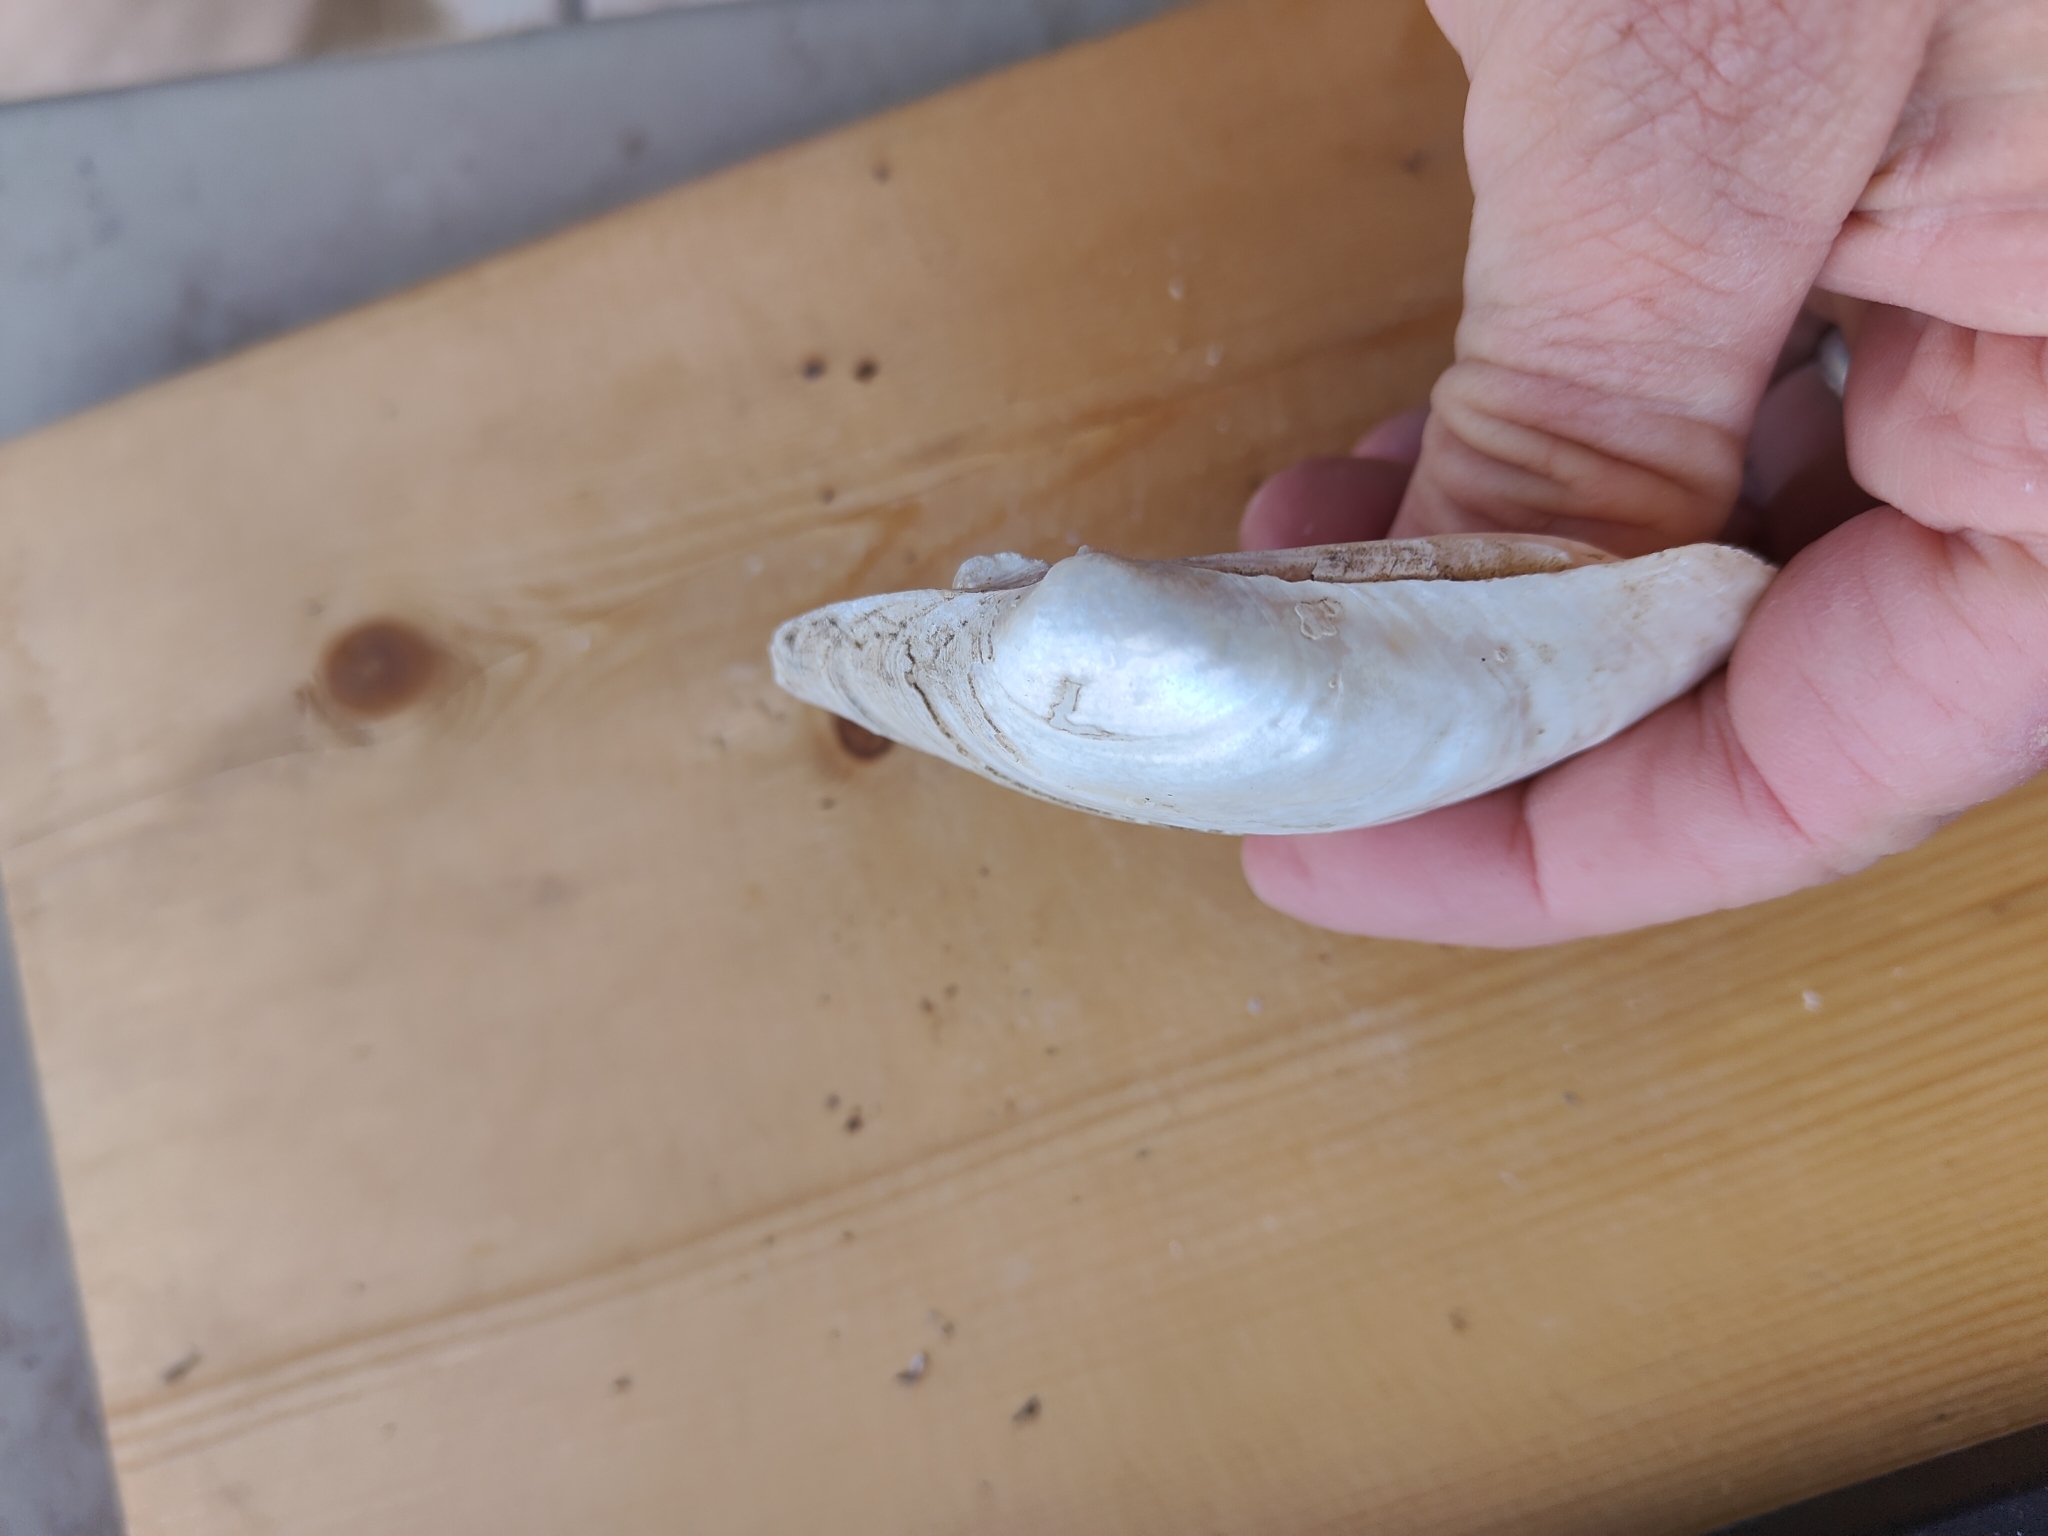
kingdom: Animalia
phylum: Mollusca
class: Bivalvia
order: Unionida
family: Unionidae
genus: Lampsilis
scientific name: Lampsilis cardium
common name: Plain pocketbook
